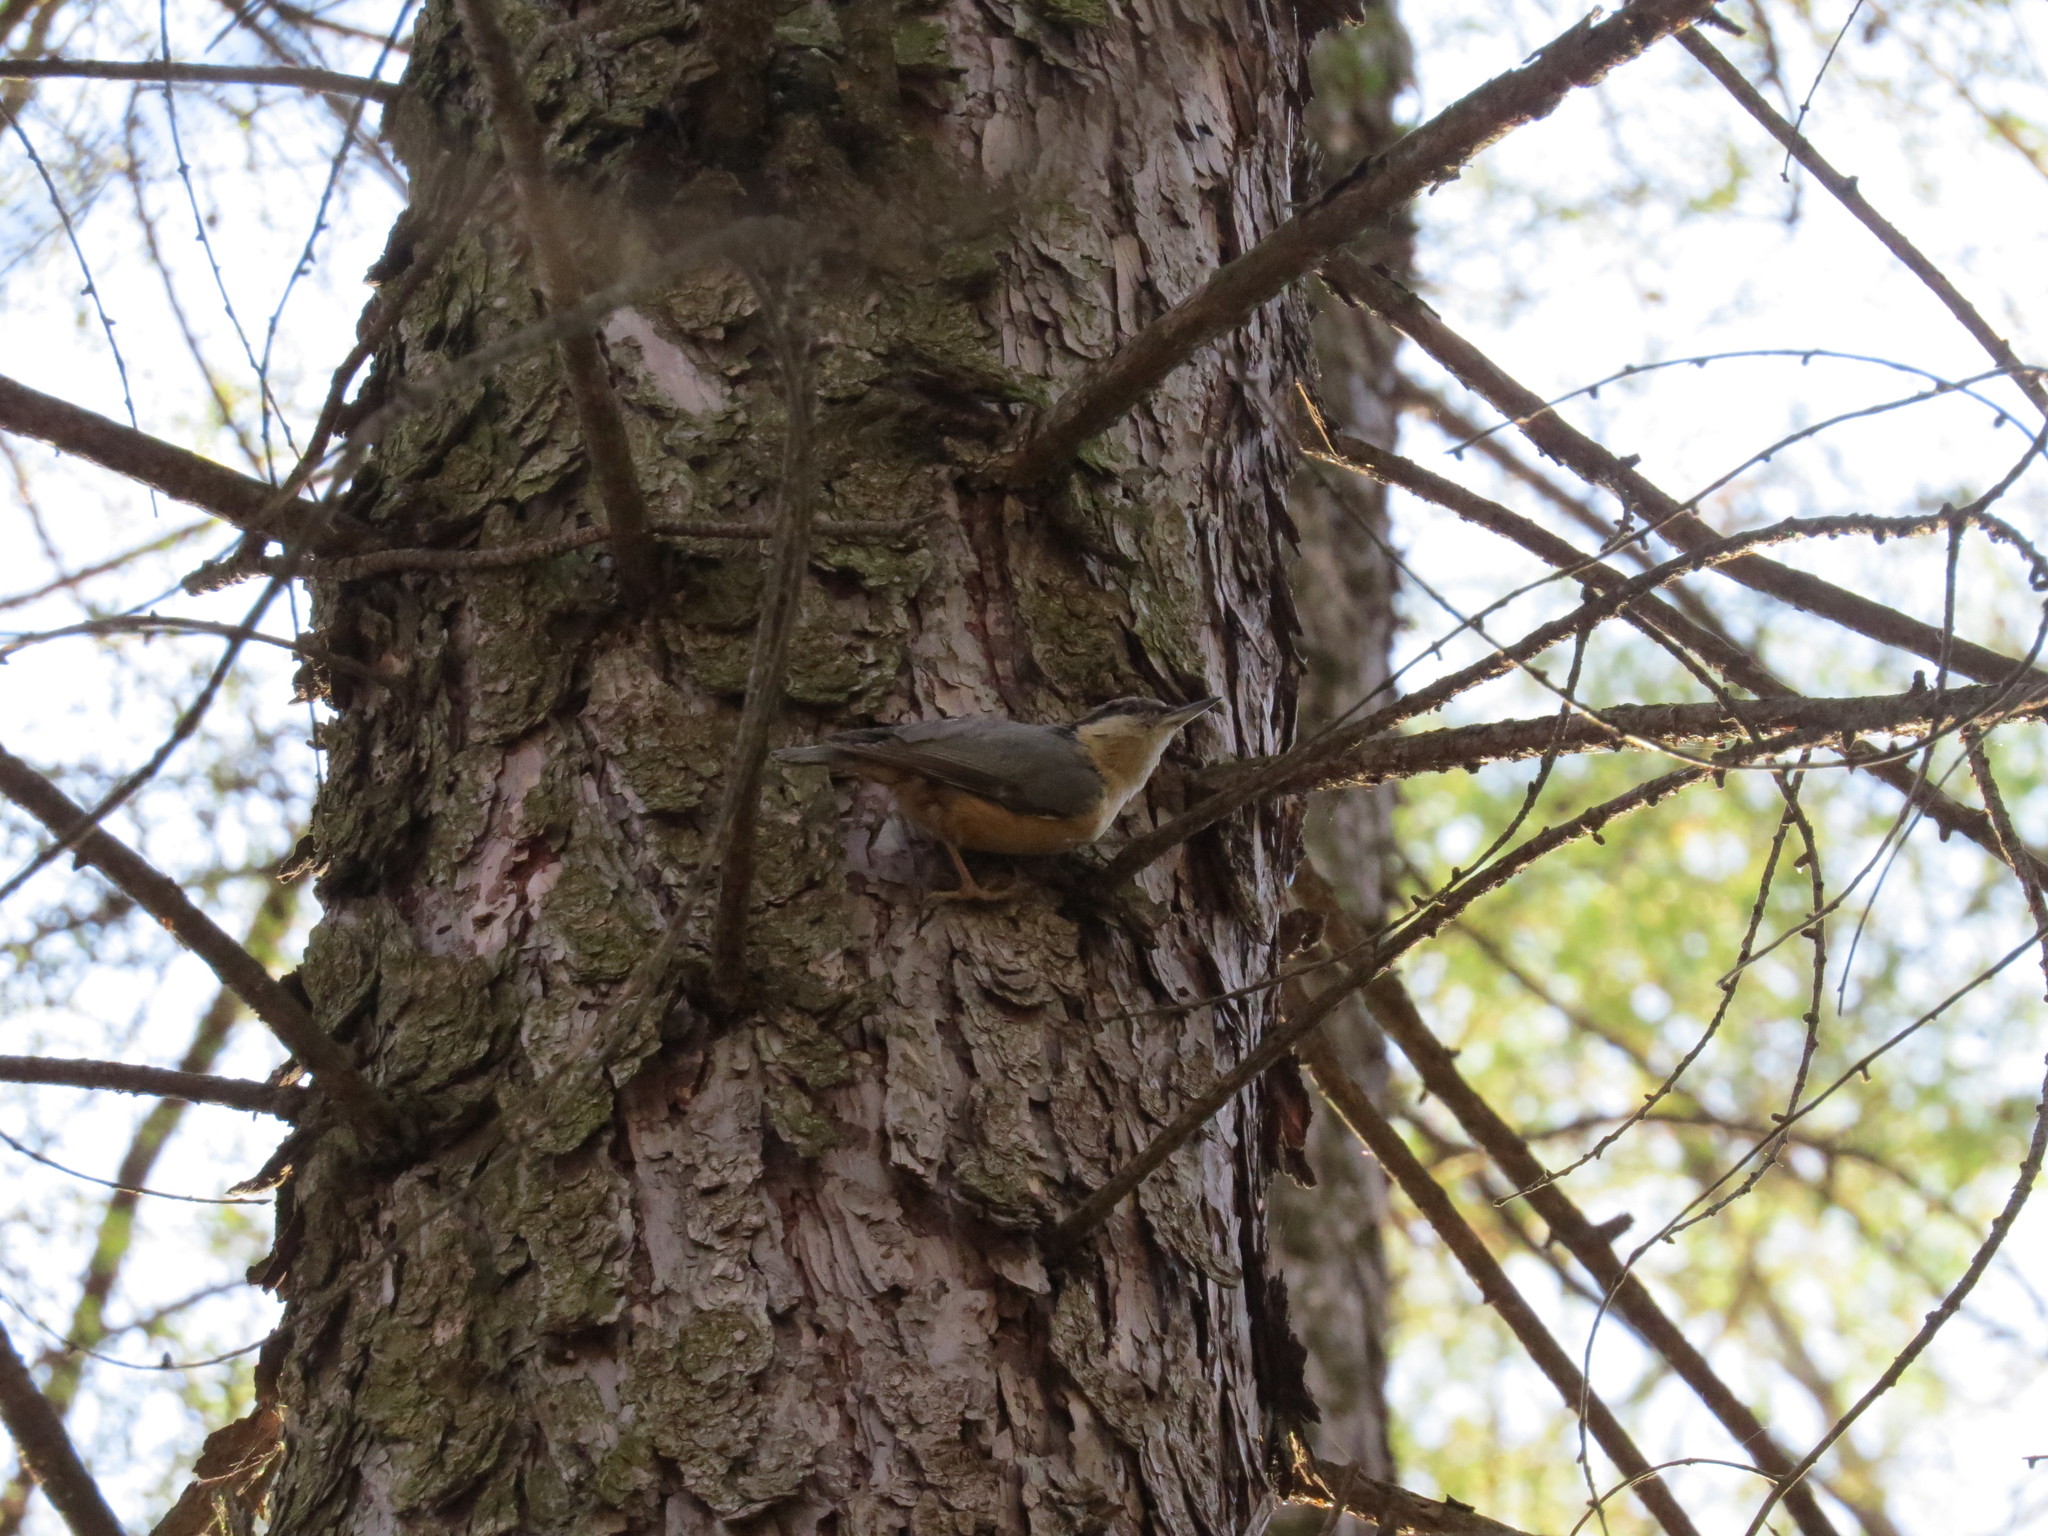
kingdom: Animalia
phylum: Chordata
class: Aves
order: Passeriformes
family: Sittidae
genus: Sitta
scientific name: Sitta europaea
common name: Eurasian nuthatch
